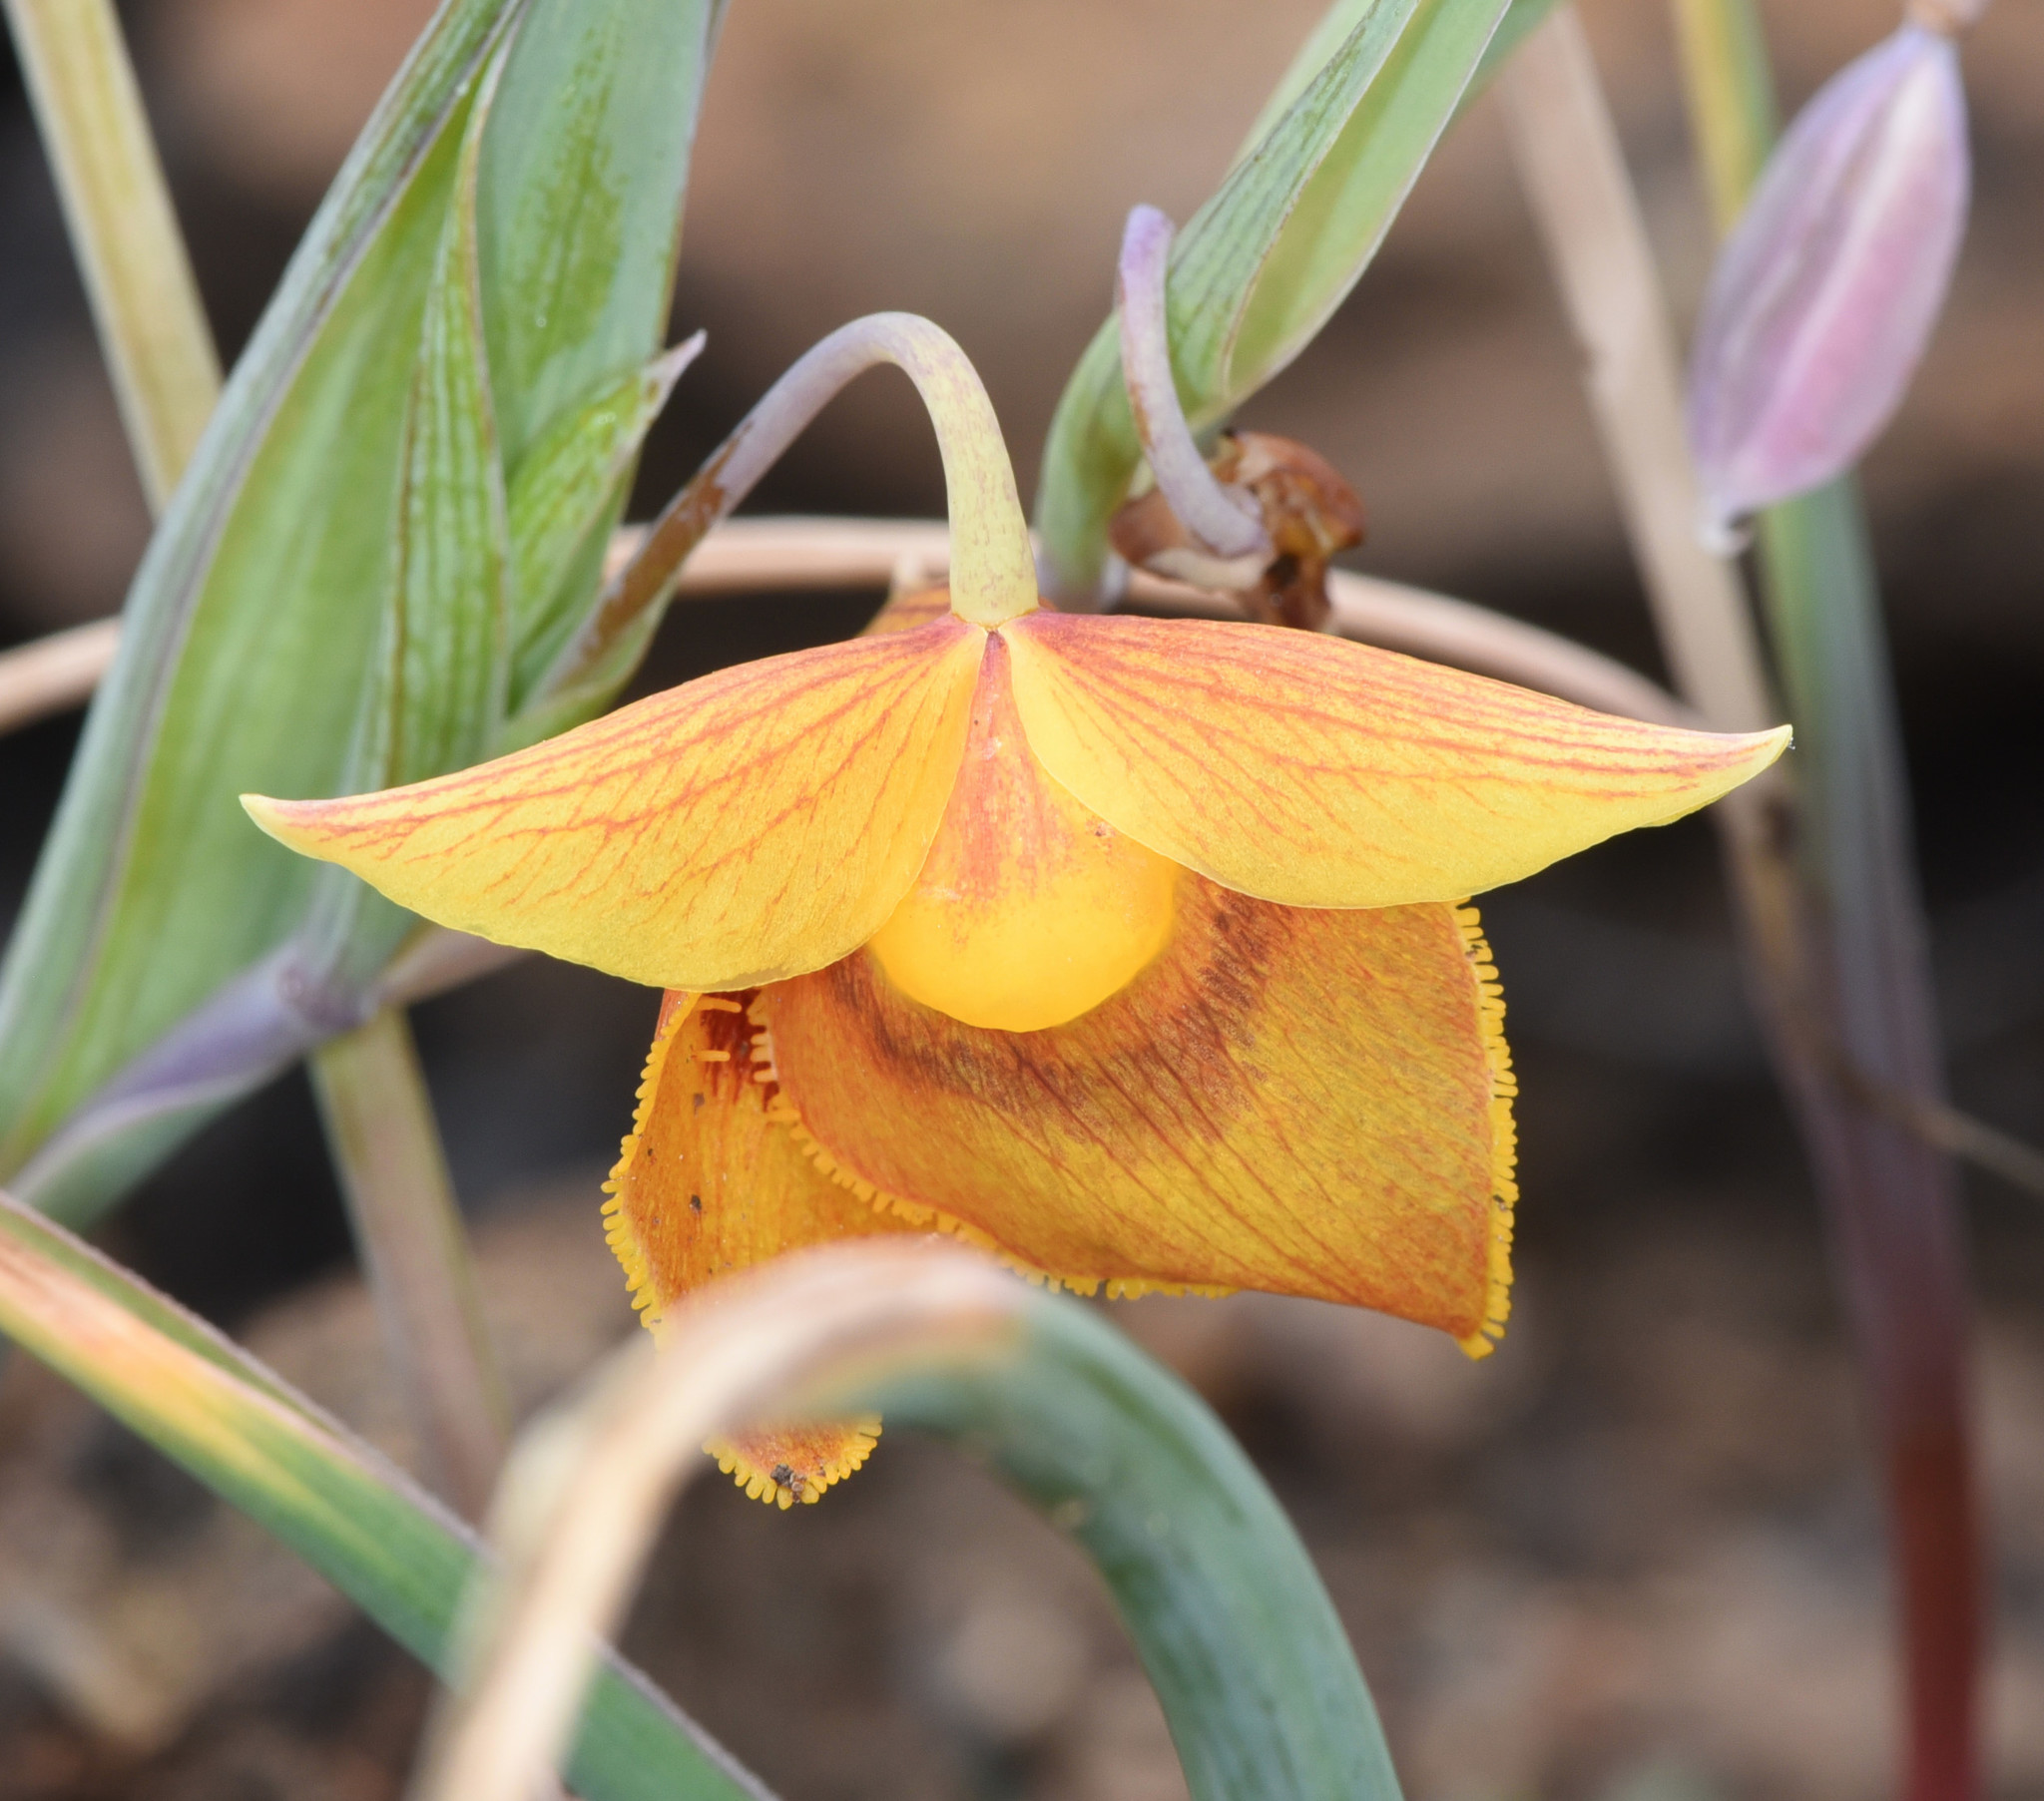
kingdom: Plantae
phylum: Tracheophyta
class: Liliopsida
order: Liliales
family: Liliaceae
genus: Calochortus
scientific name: Calochortus amabilis
